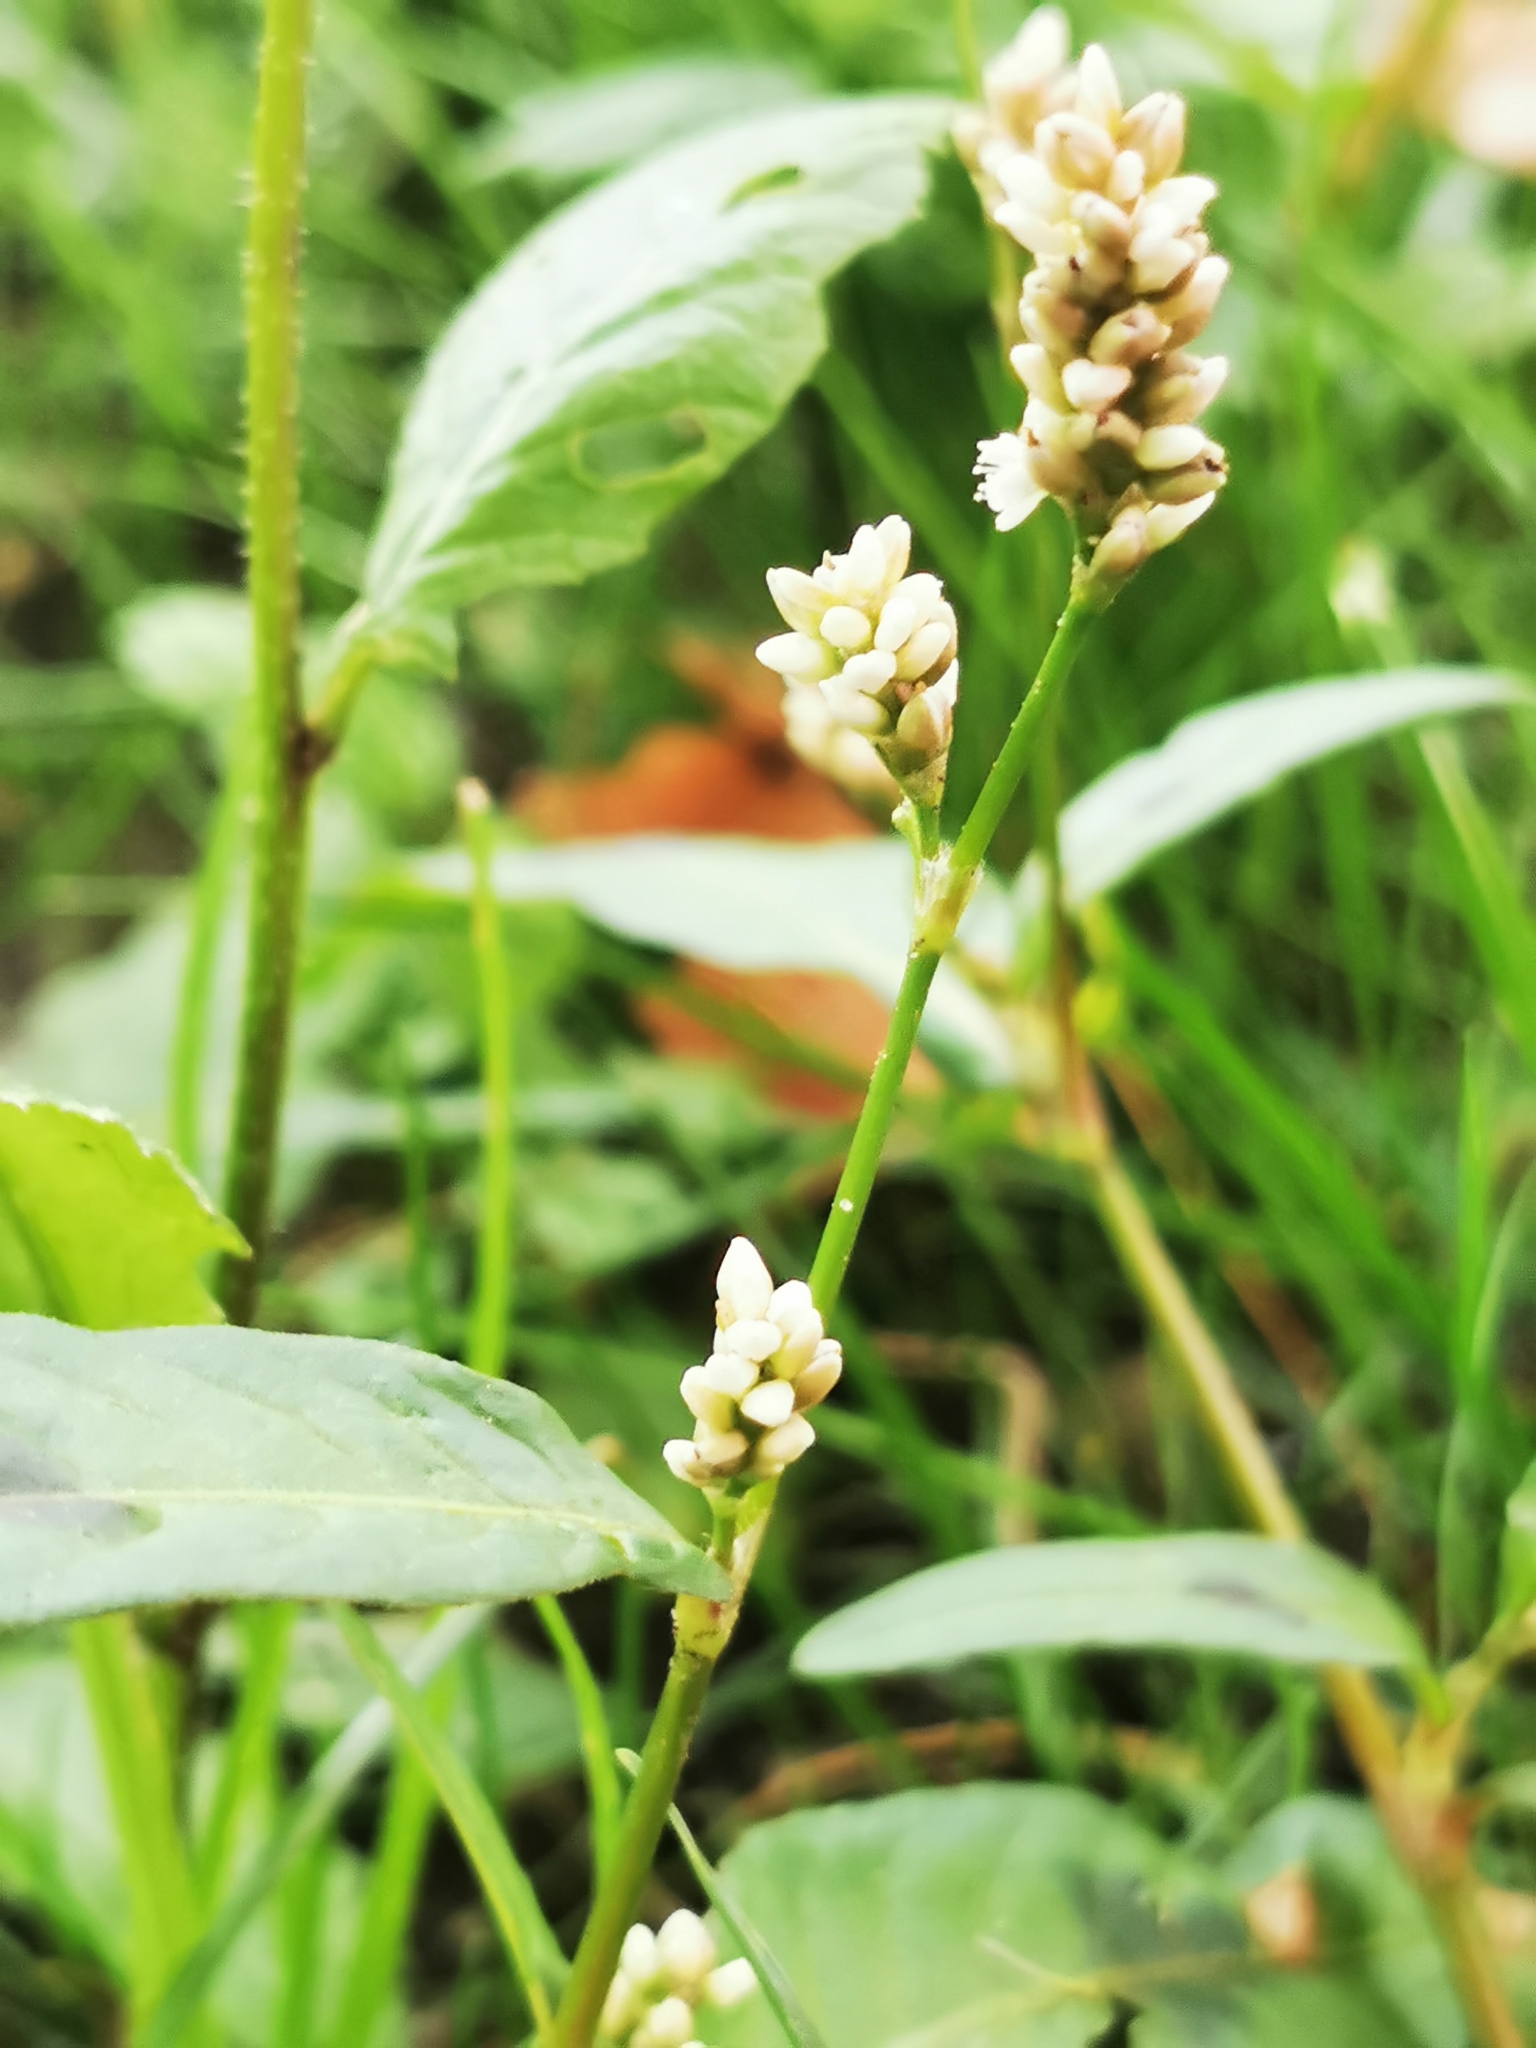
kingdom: Plantae
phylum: Tracheophyta
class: Magnoliopsida
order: Caryophyllales
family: Polygonaceae
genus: Persicaria
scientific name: Persicaria maculosa
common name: Redshank
